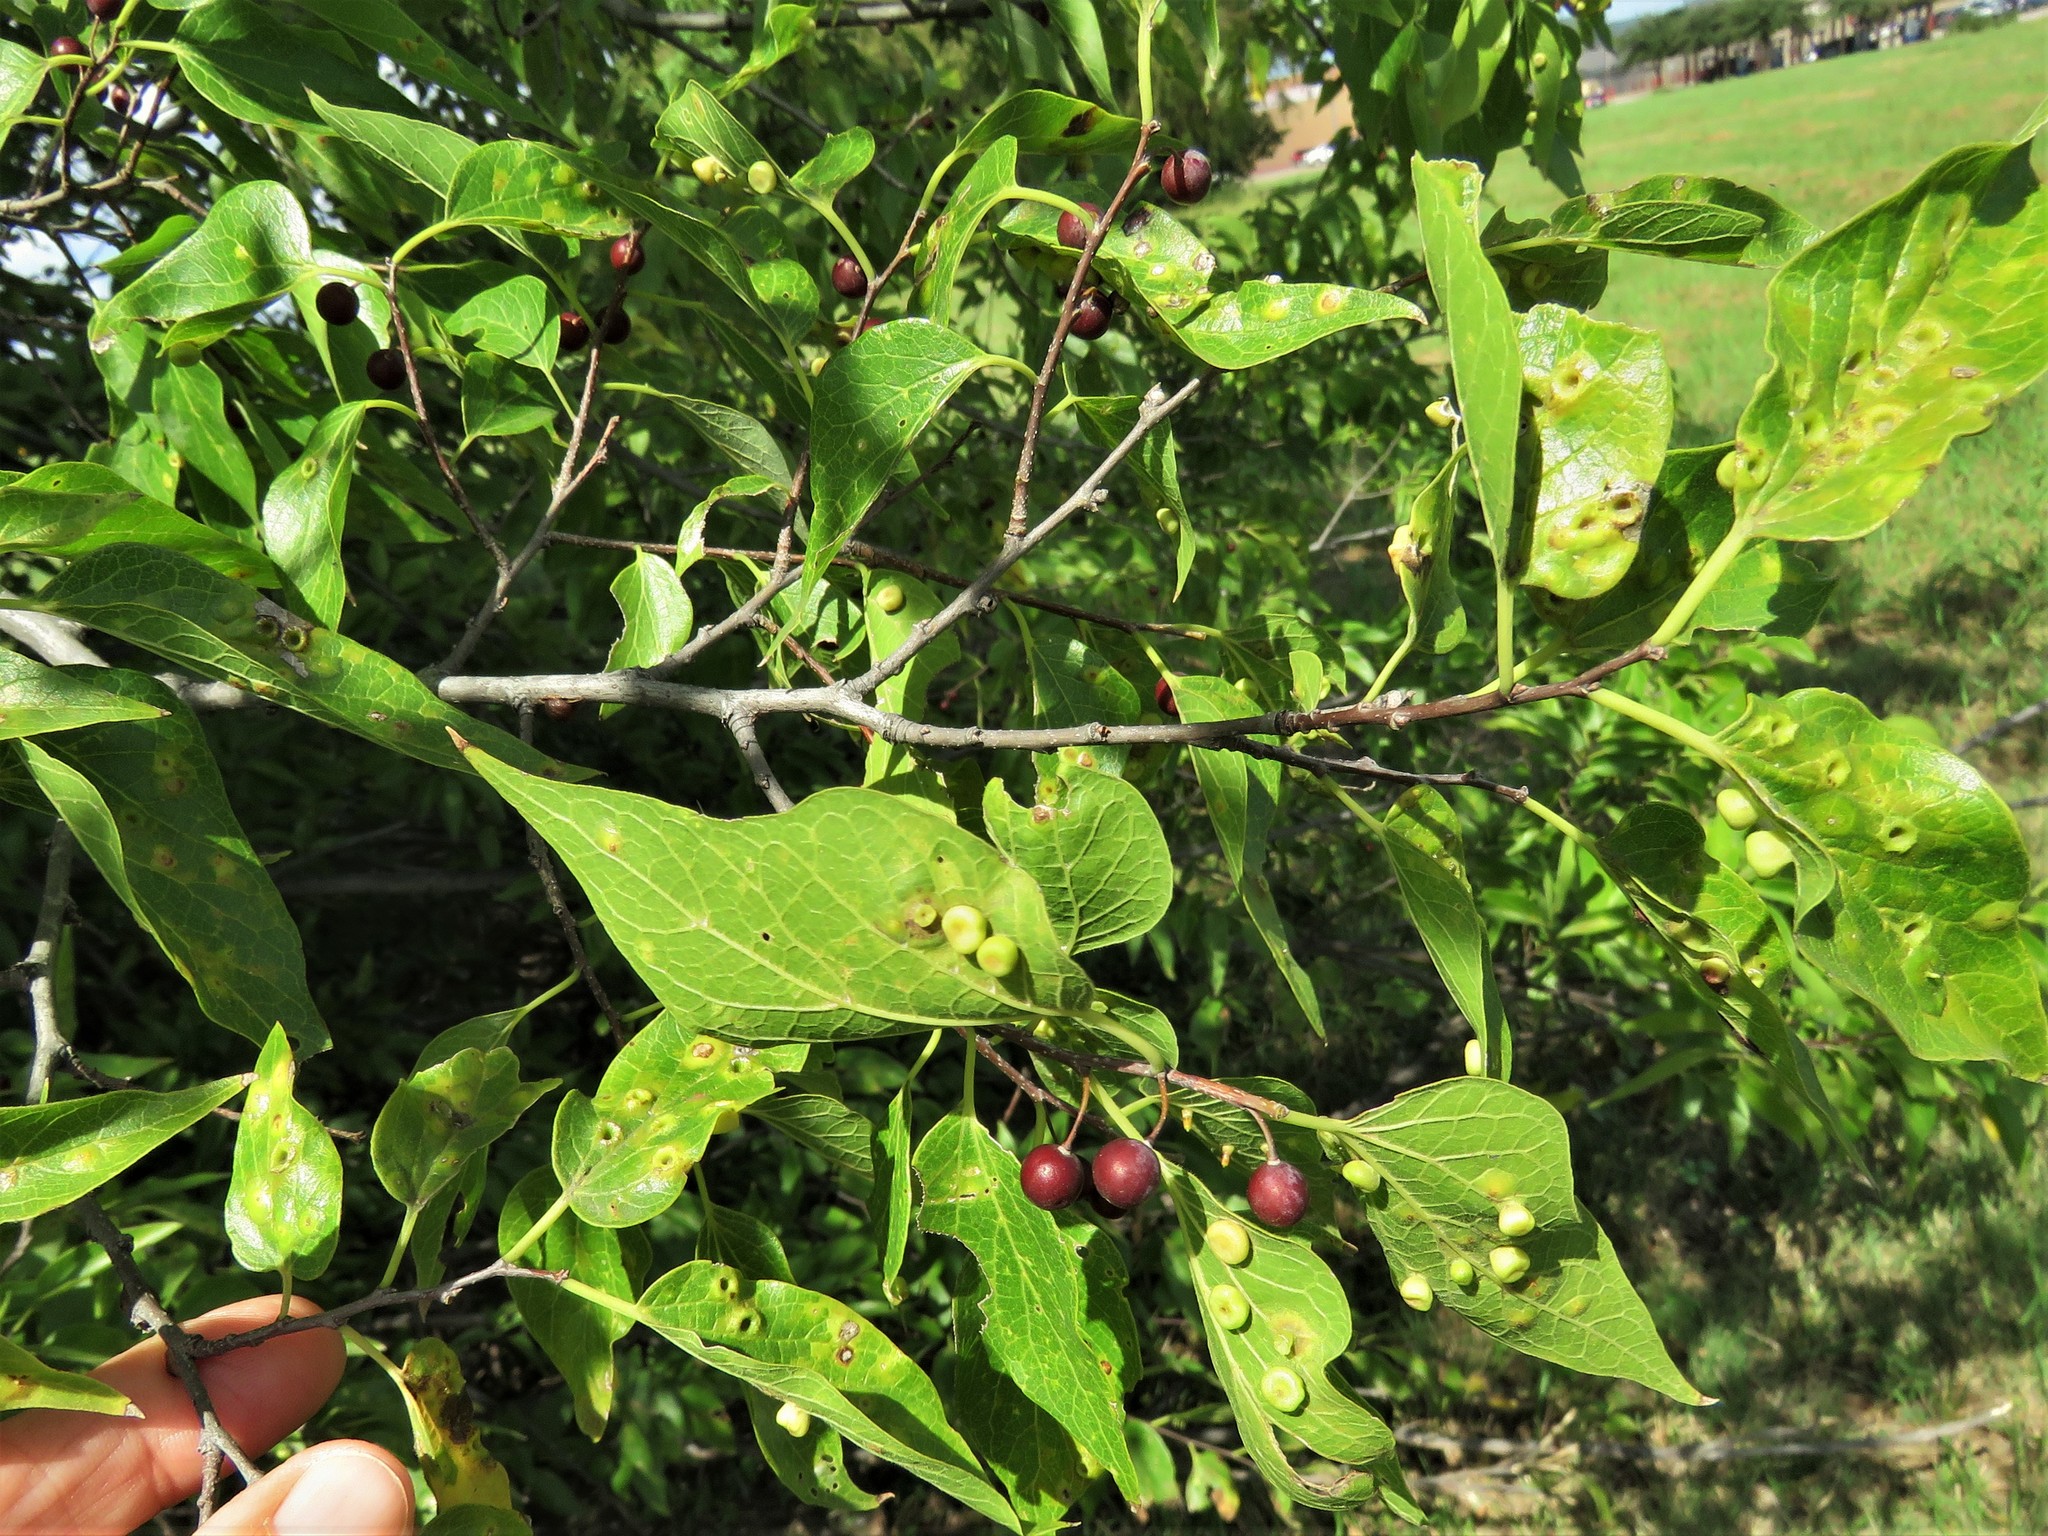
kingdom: Plantae
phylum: Tracheophyta
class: Magnoliopsida
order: Rosales
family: Cannabaceae
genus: Celtis
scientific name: Celtis laevigata
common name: Sugarberry
